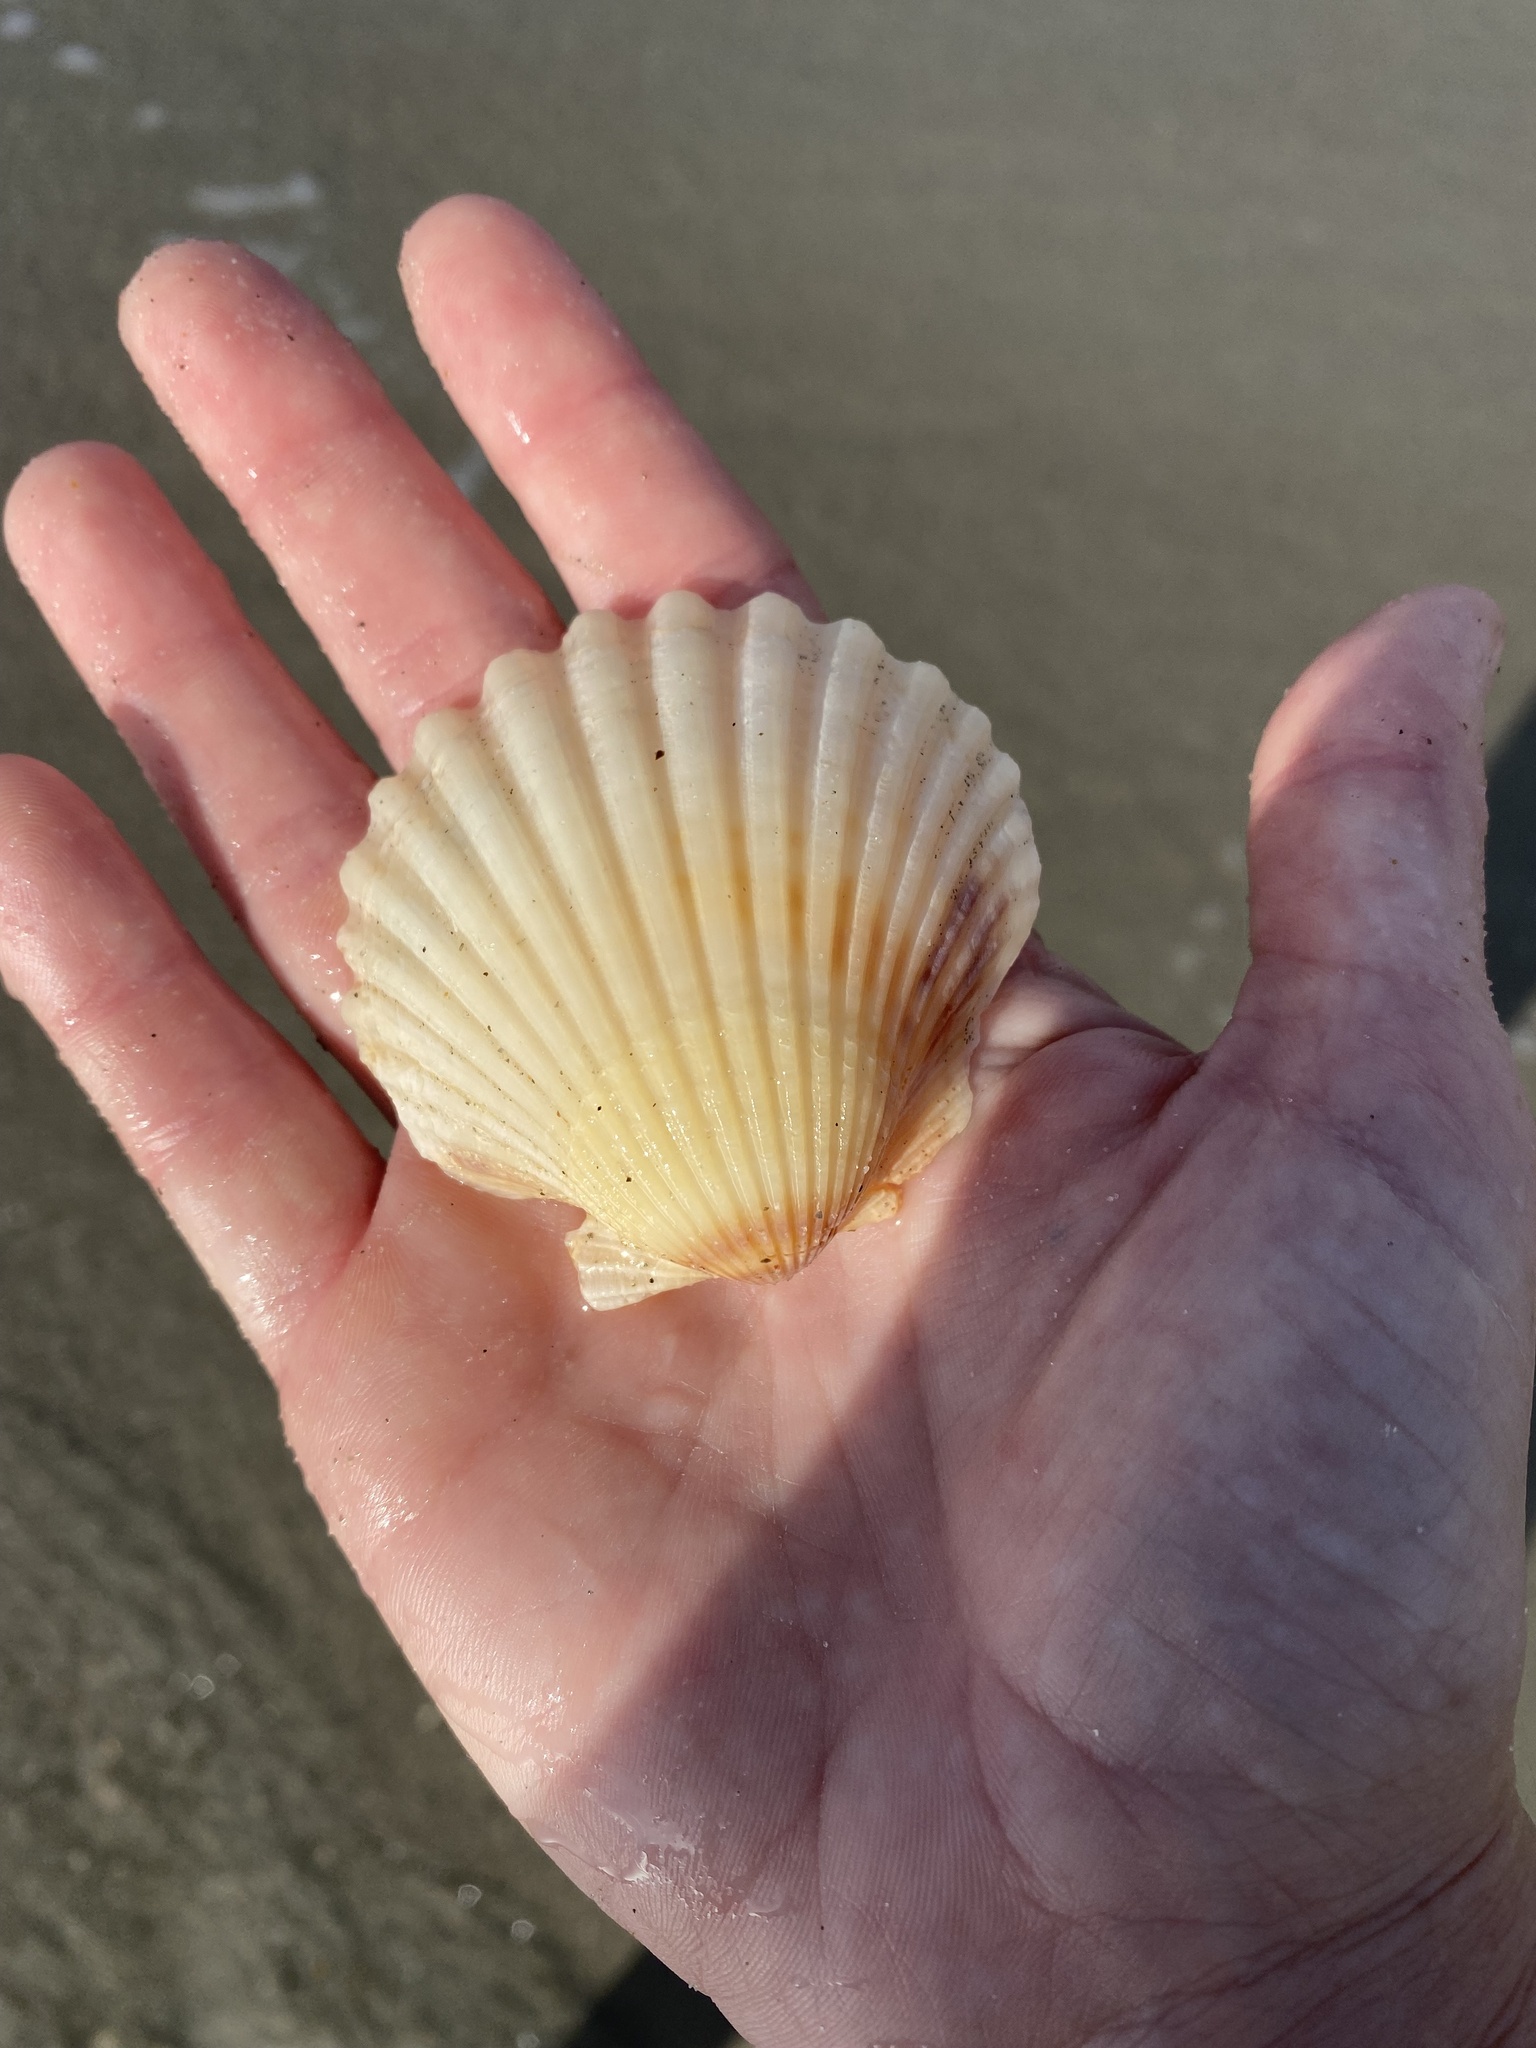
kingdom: Animalia
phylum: Mollusca
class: Bivalvia
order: Pectinida
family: Pectinidae
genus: Argopecten
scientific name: Argopecten irradians
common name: Atlantic bay scallop
